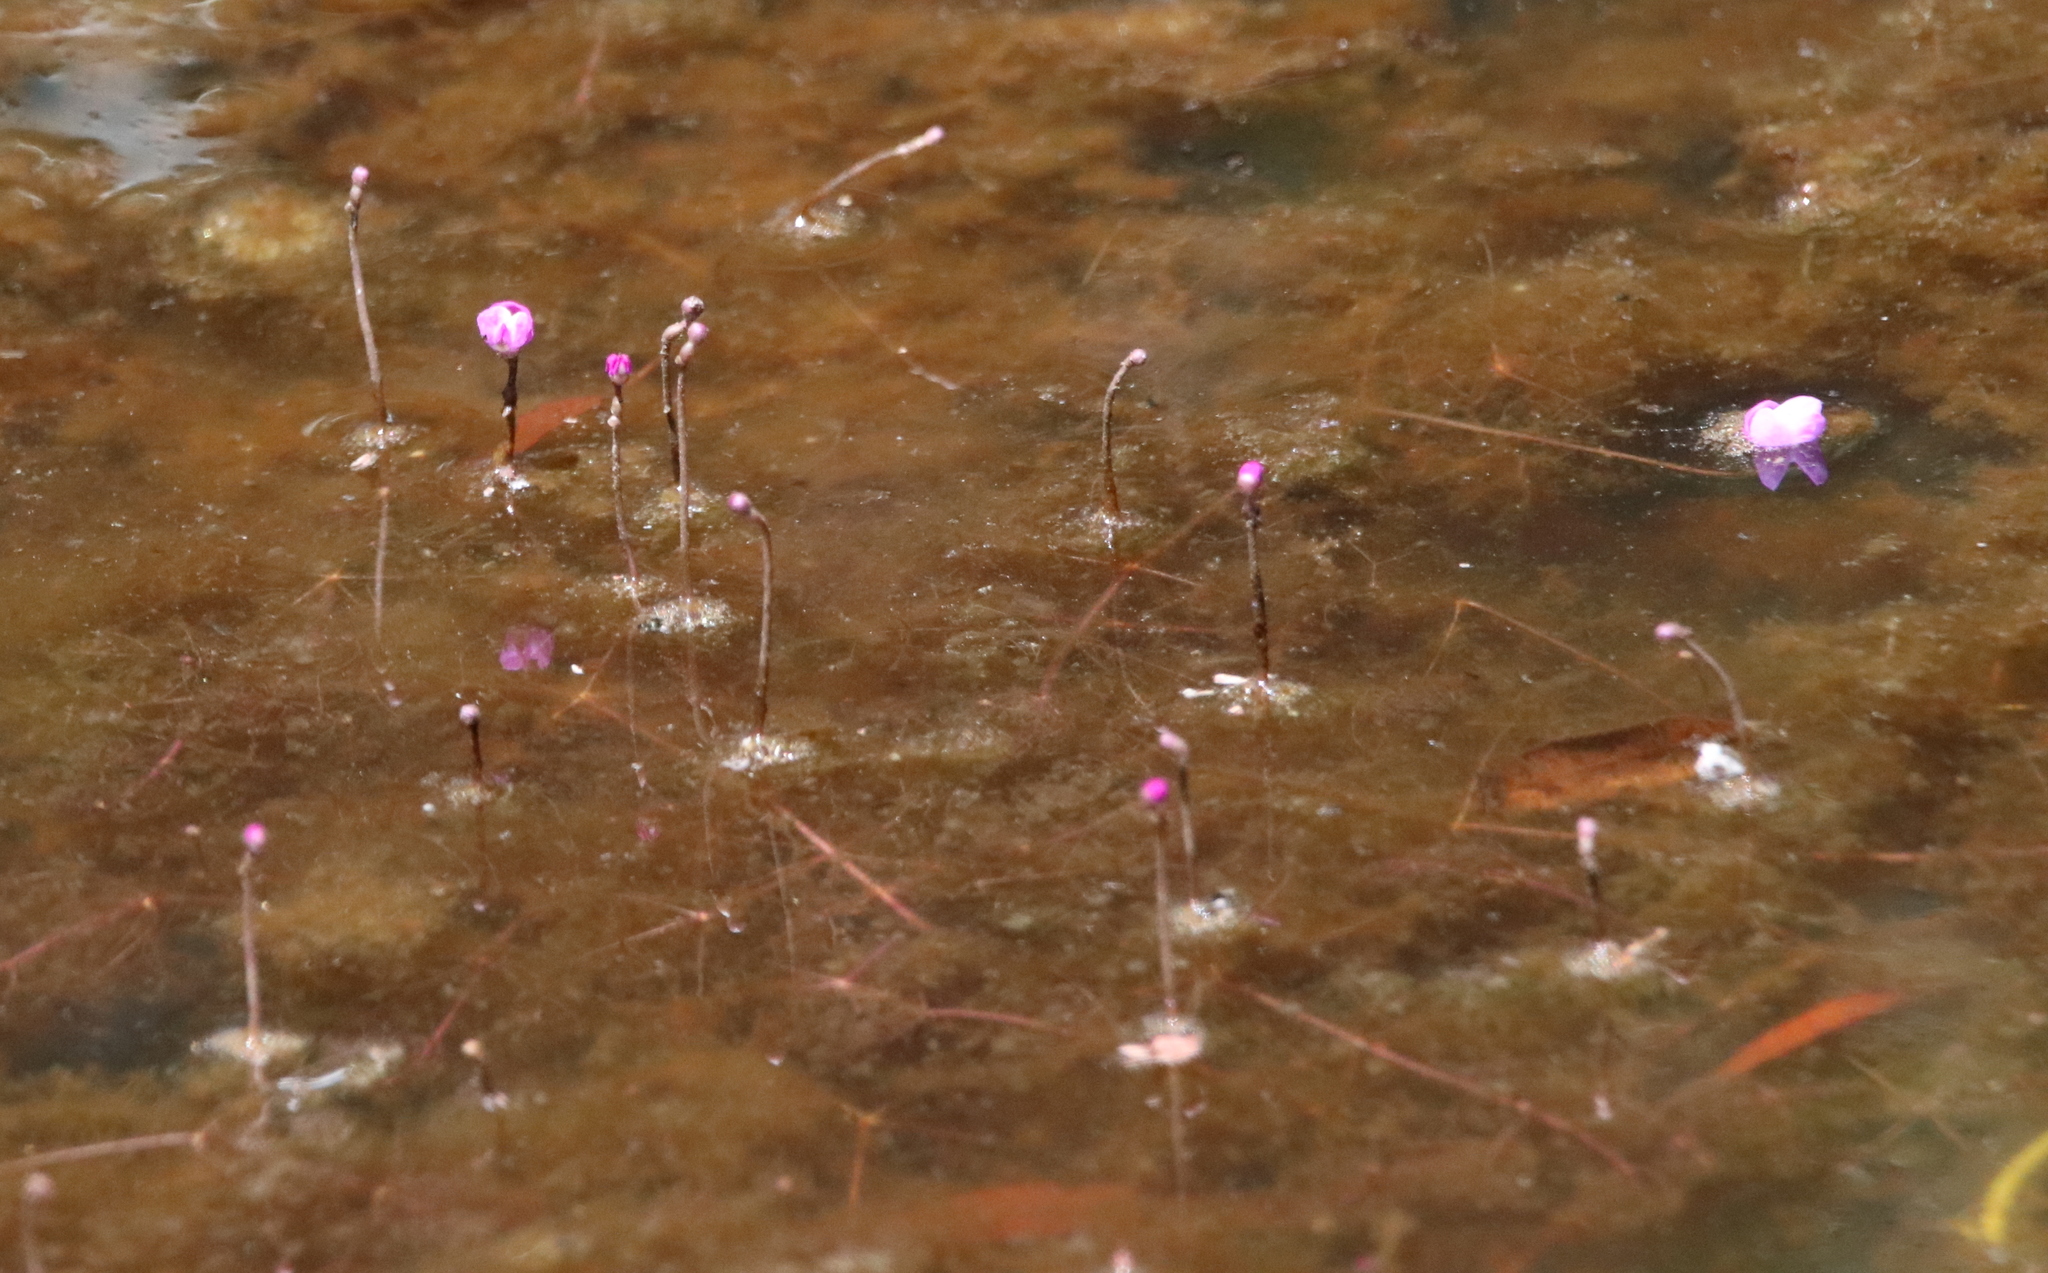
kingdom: Plantae
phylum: Tracheophyta
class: Magnoliopsida
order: Lamiales
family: Lentibulariaceae
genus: Utricularia
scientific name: Utricularia purpurea
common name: Eastern purple bladderwort
